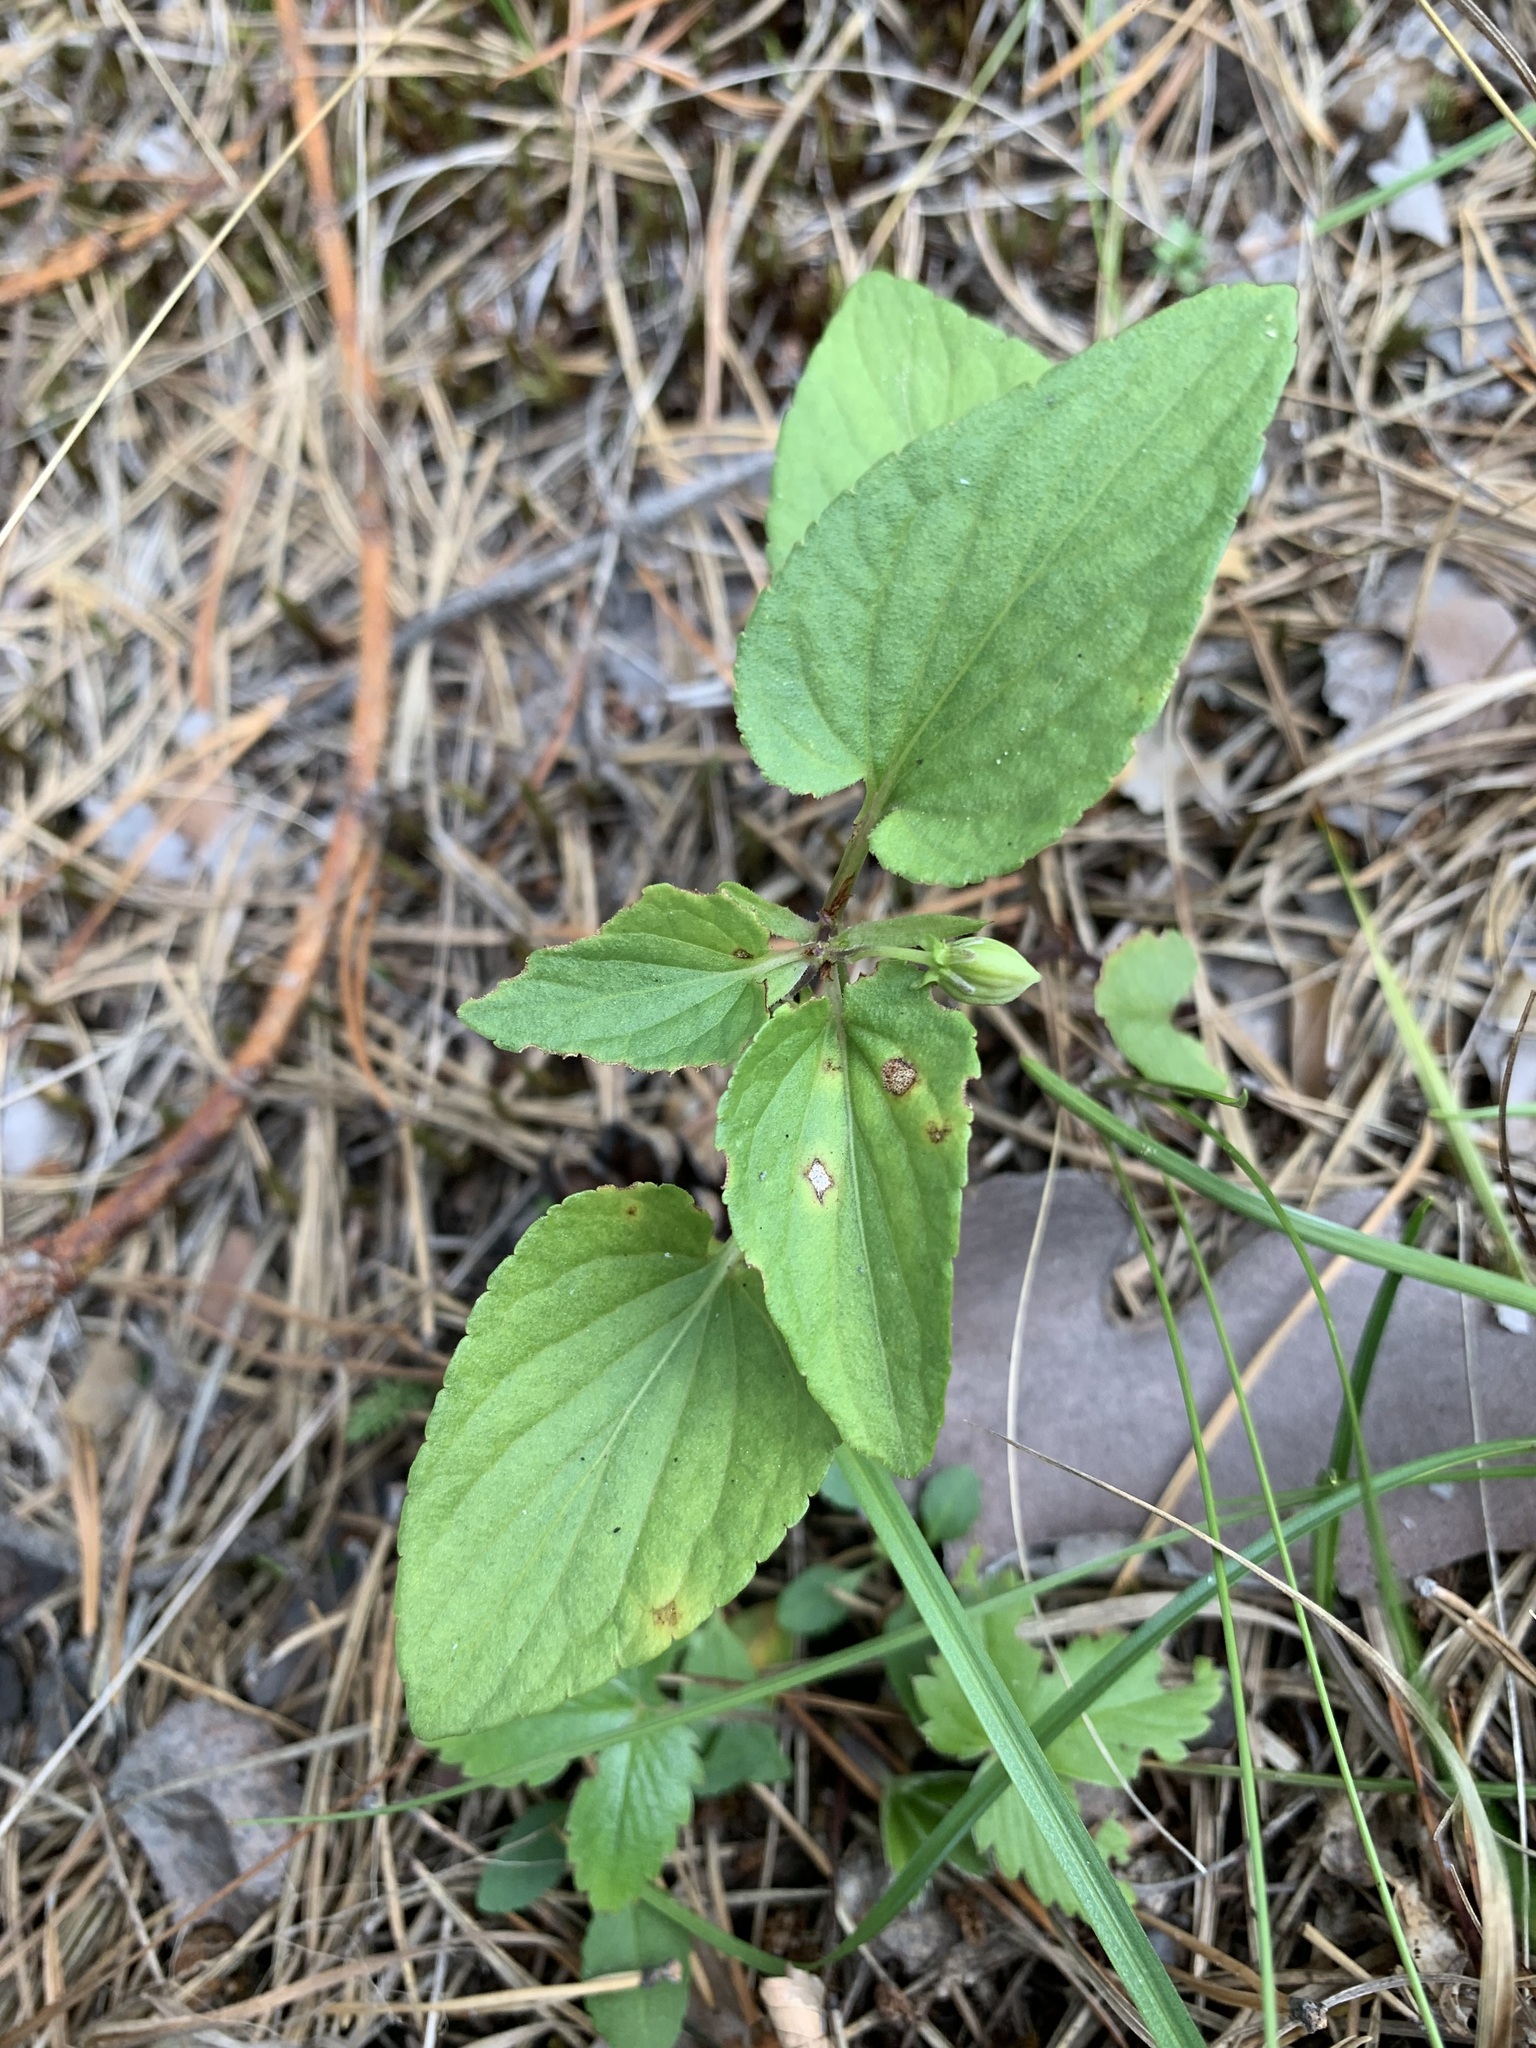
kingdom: Plantae
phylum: Tracheophyta
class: Magnoliopsida
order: Malpighiales
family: Violaceae
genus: Viola
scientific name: Viola
